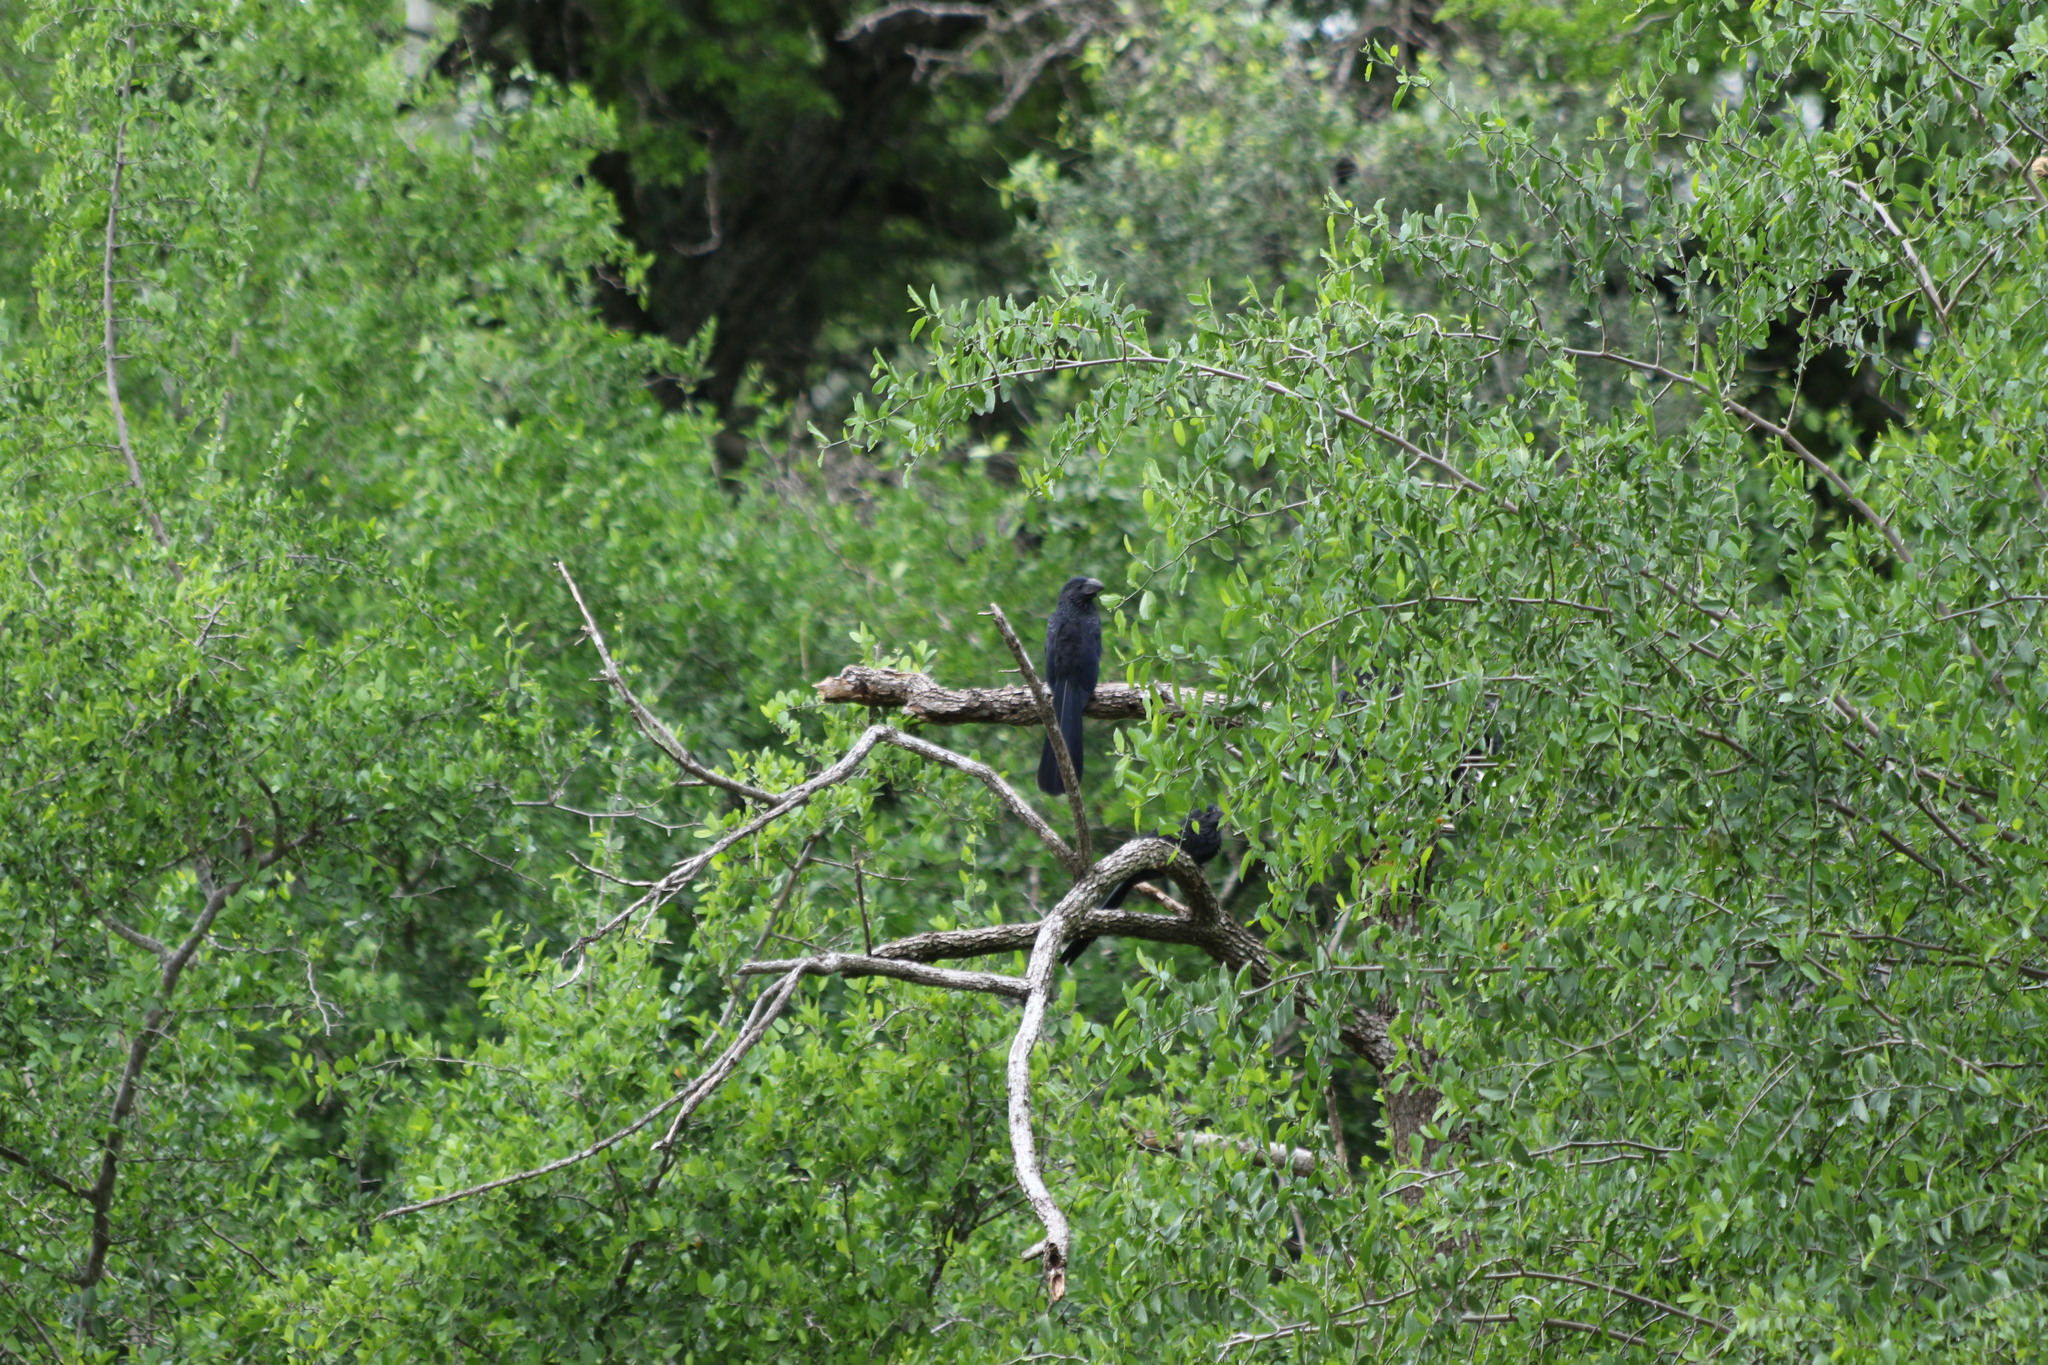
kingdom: Animalia
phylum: Chordata
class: Aves
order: Cuculiformes
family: Cuculidae
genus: Crotophaga
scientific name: Crotophaga sulcirostris
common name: Groove-billed ani
